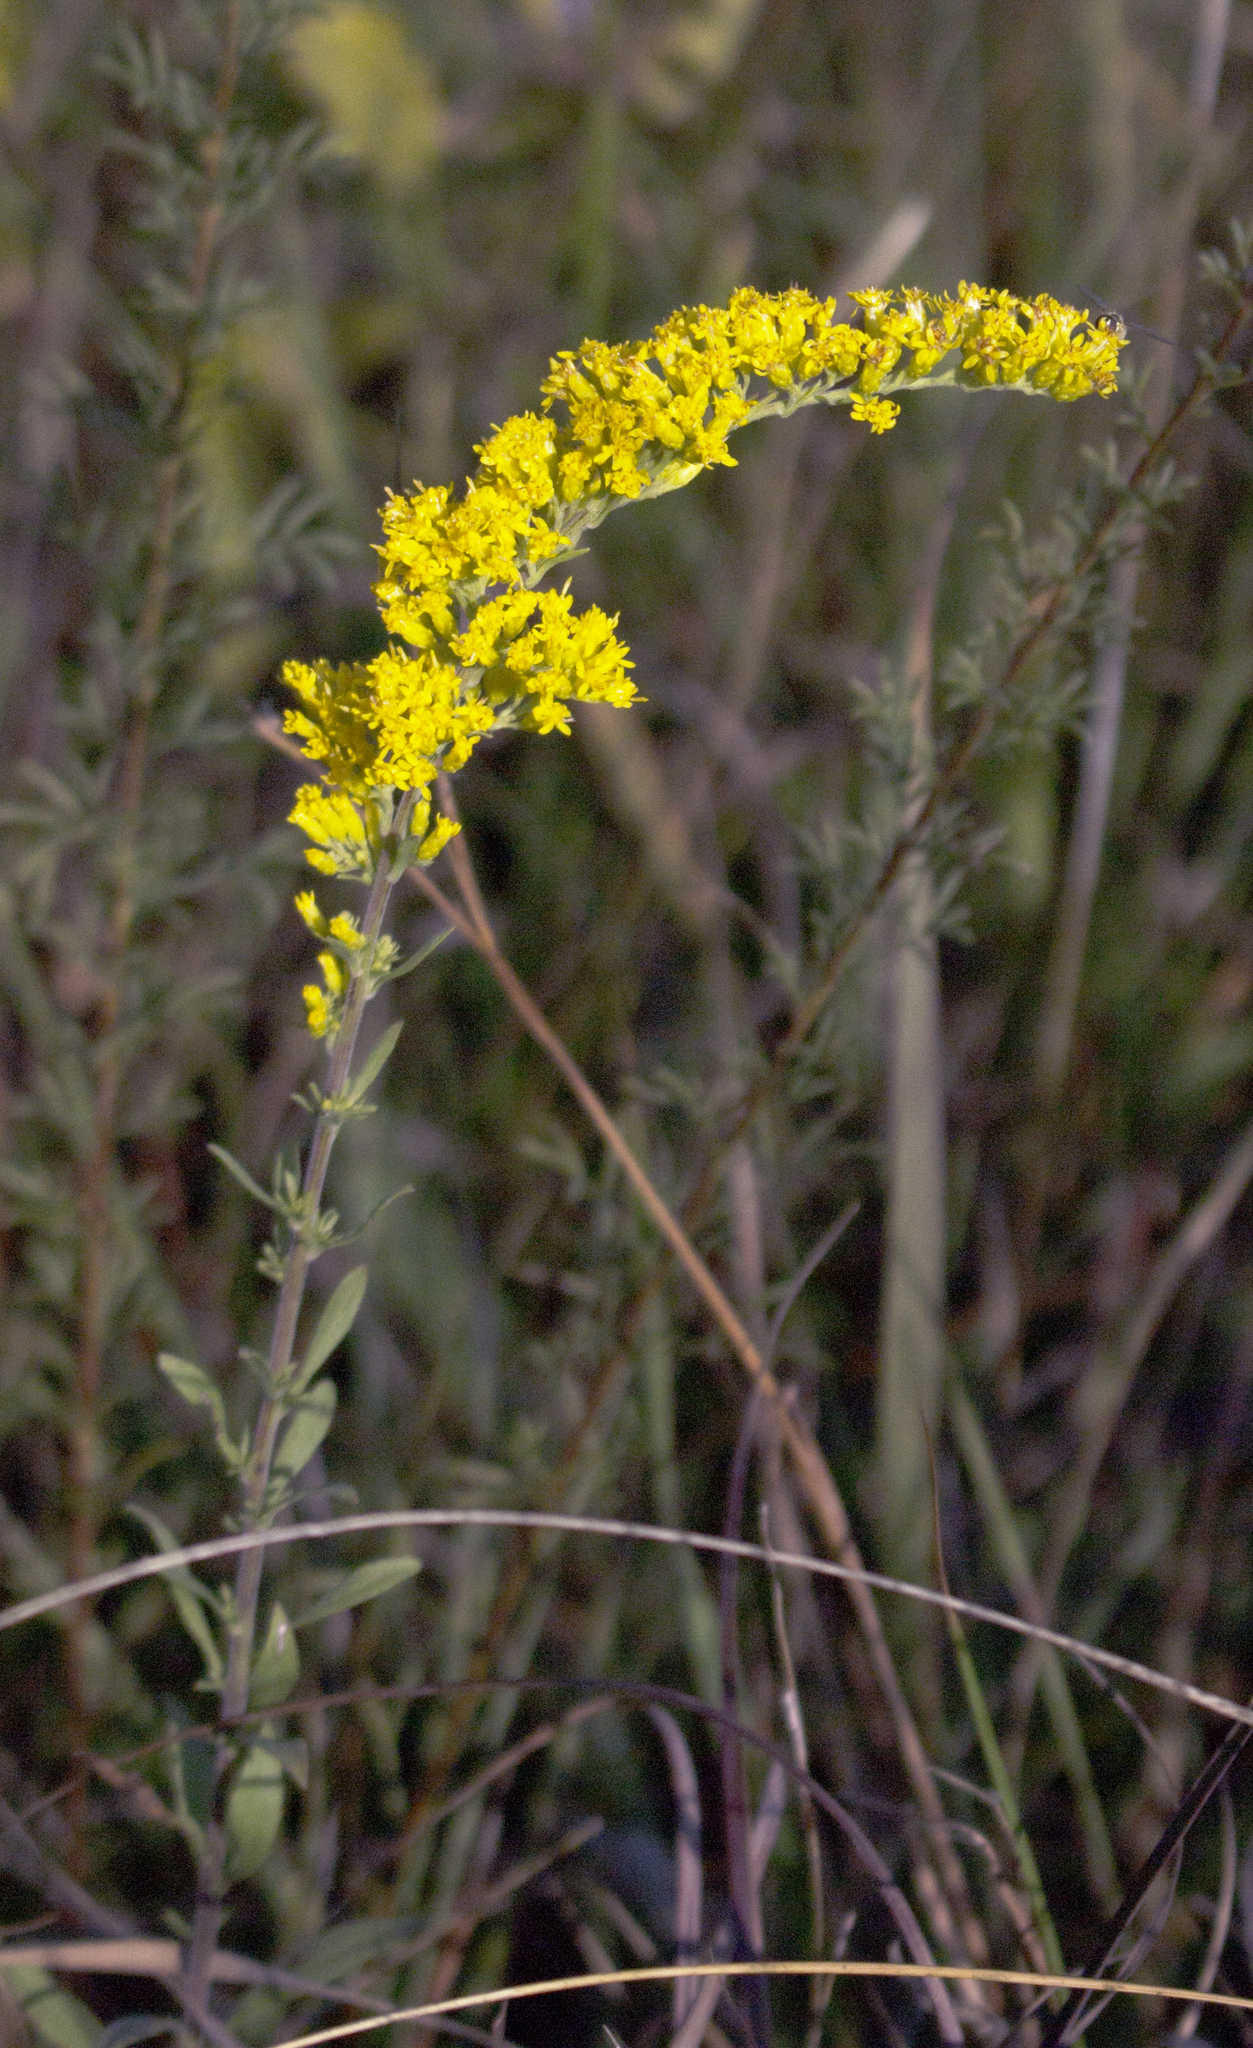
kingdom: Plantae
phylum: Tracheophyta
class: Magnoliopsida
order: Asterales
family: Asteraceae
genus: Solidago
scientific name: Solidago nemoralis
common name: Grey goldenrod
